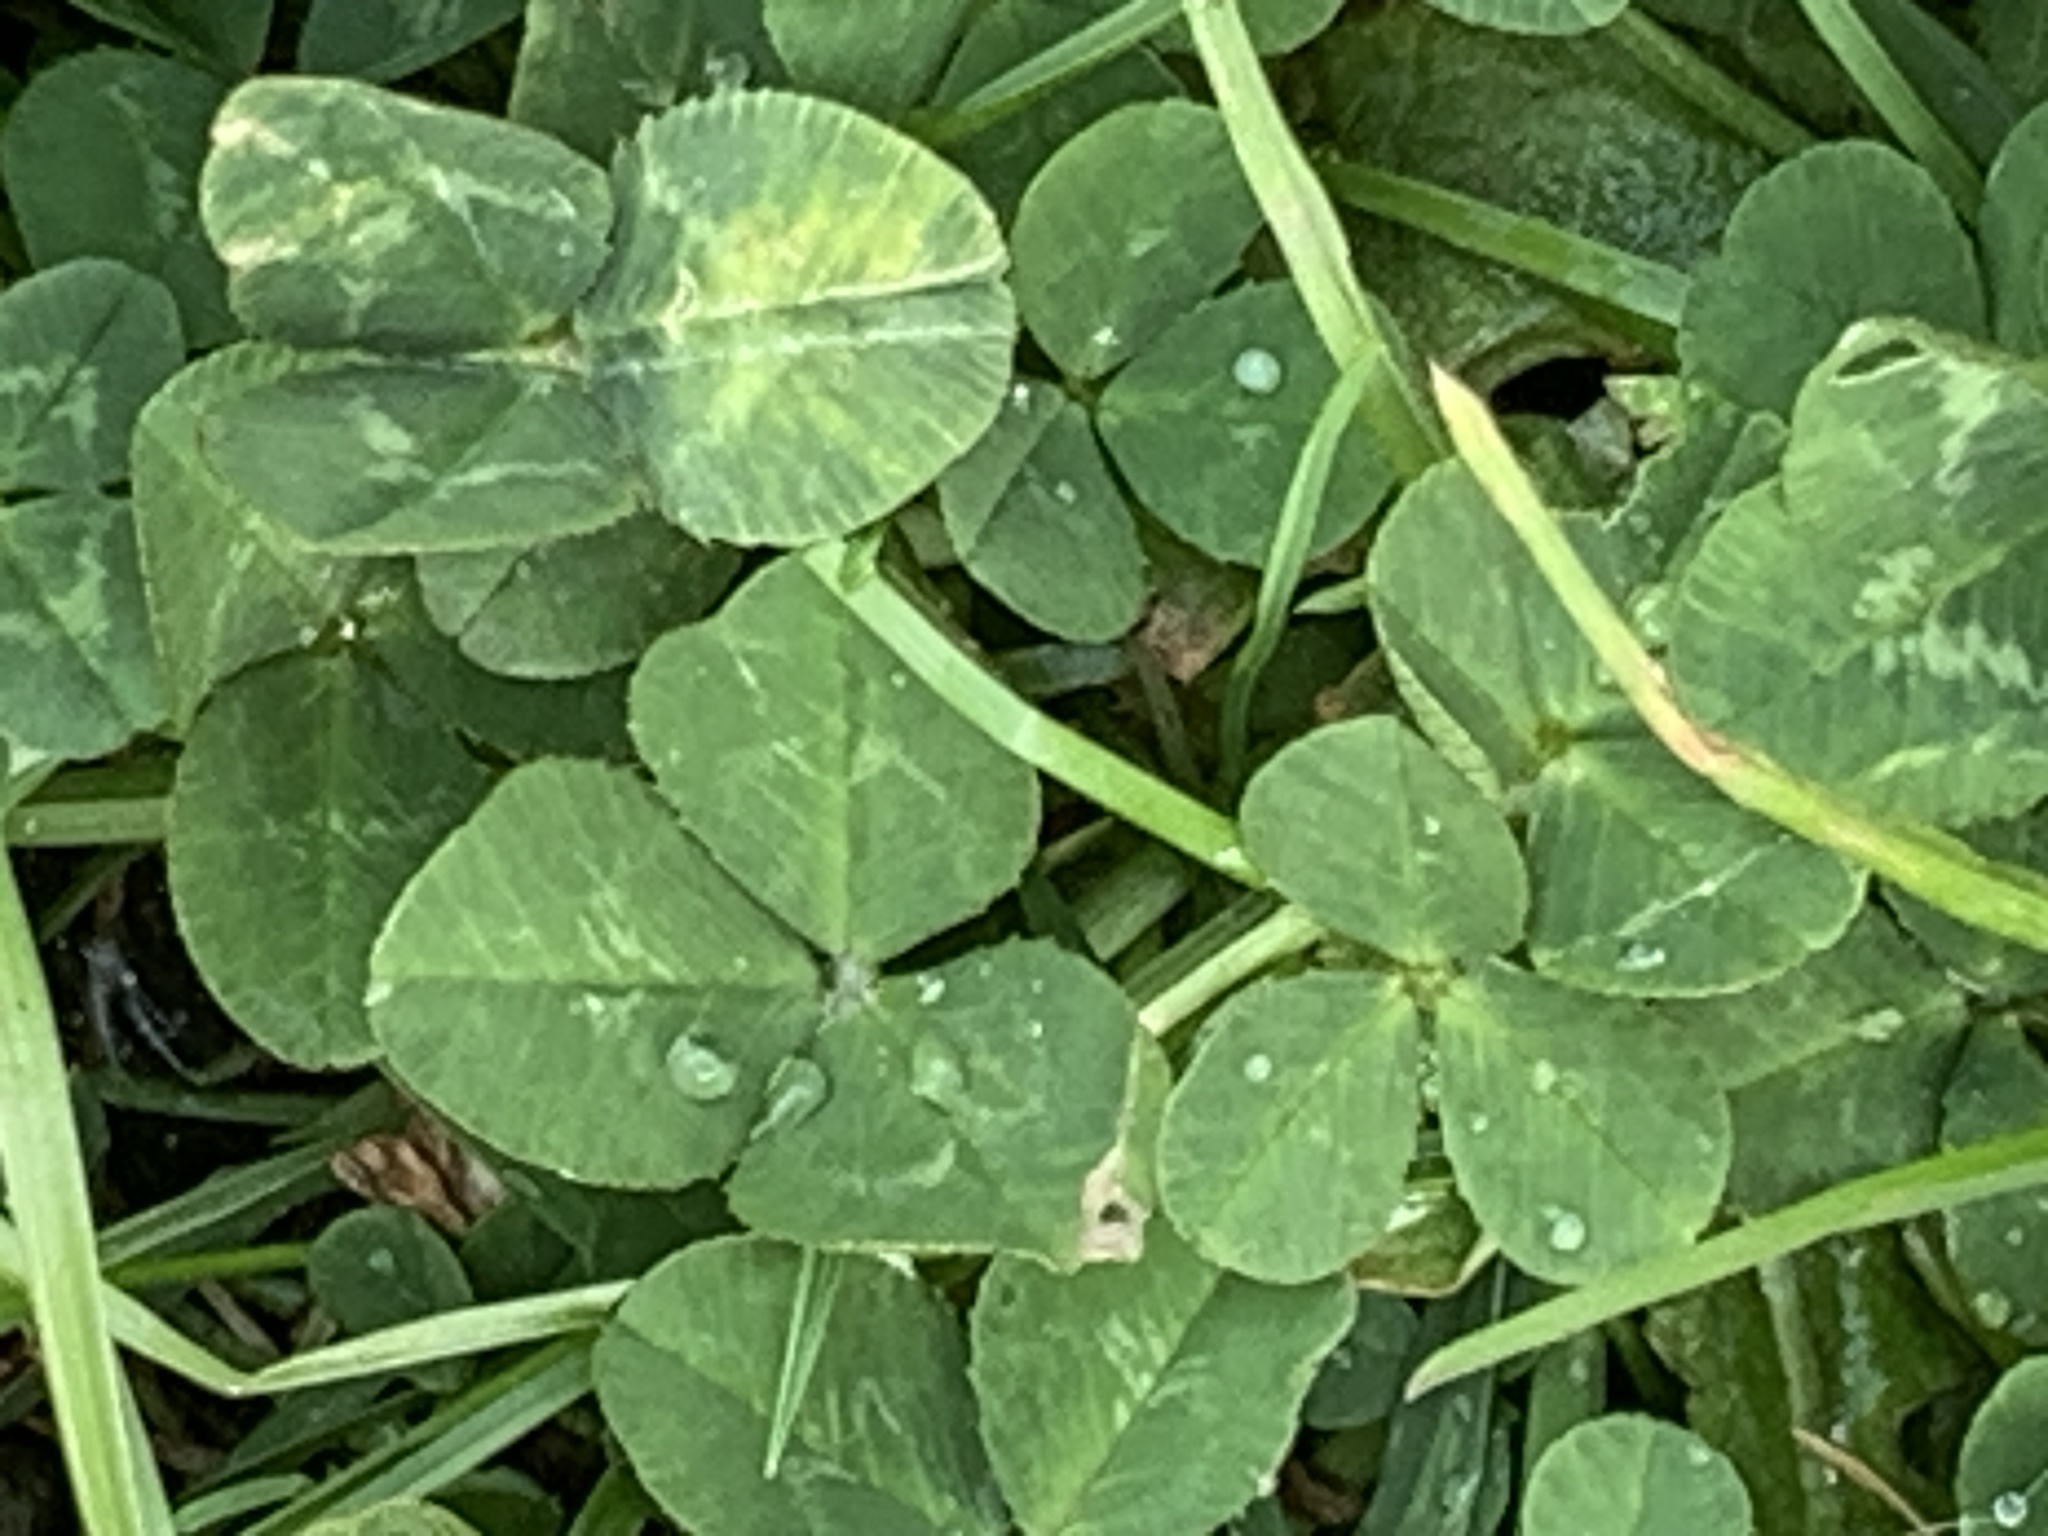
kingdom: Plantae
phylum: Tracheophyta
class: Magnoliopsida
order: Fabales
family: Fabaceae
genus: Trifolium
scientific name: Trifolium repens
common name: White clover
